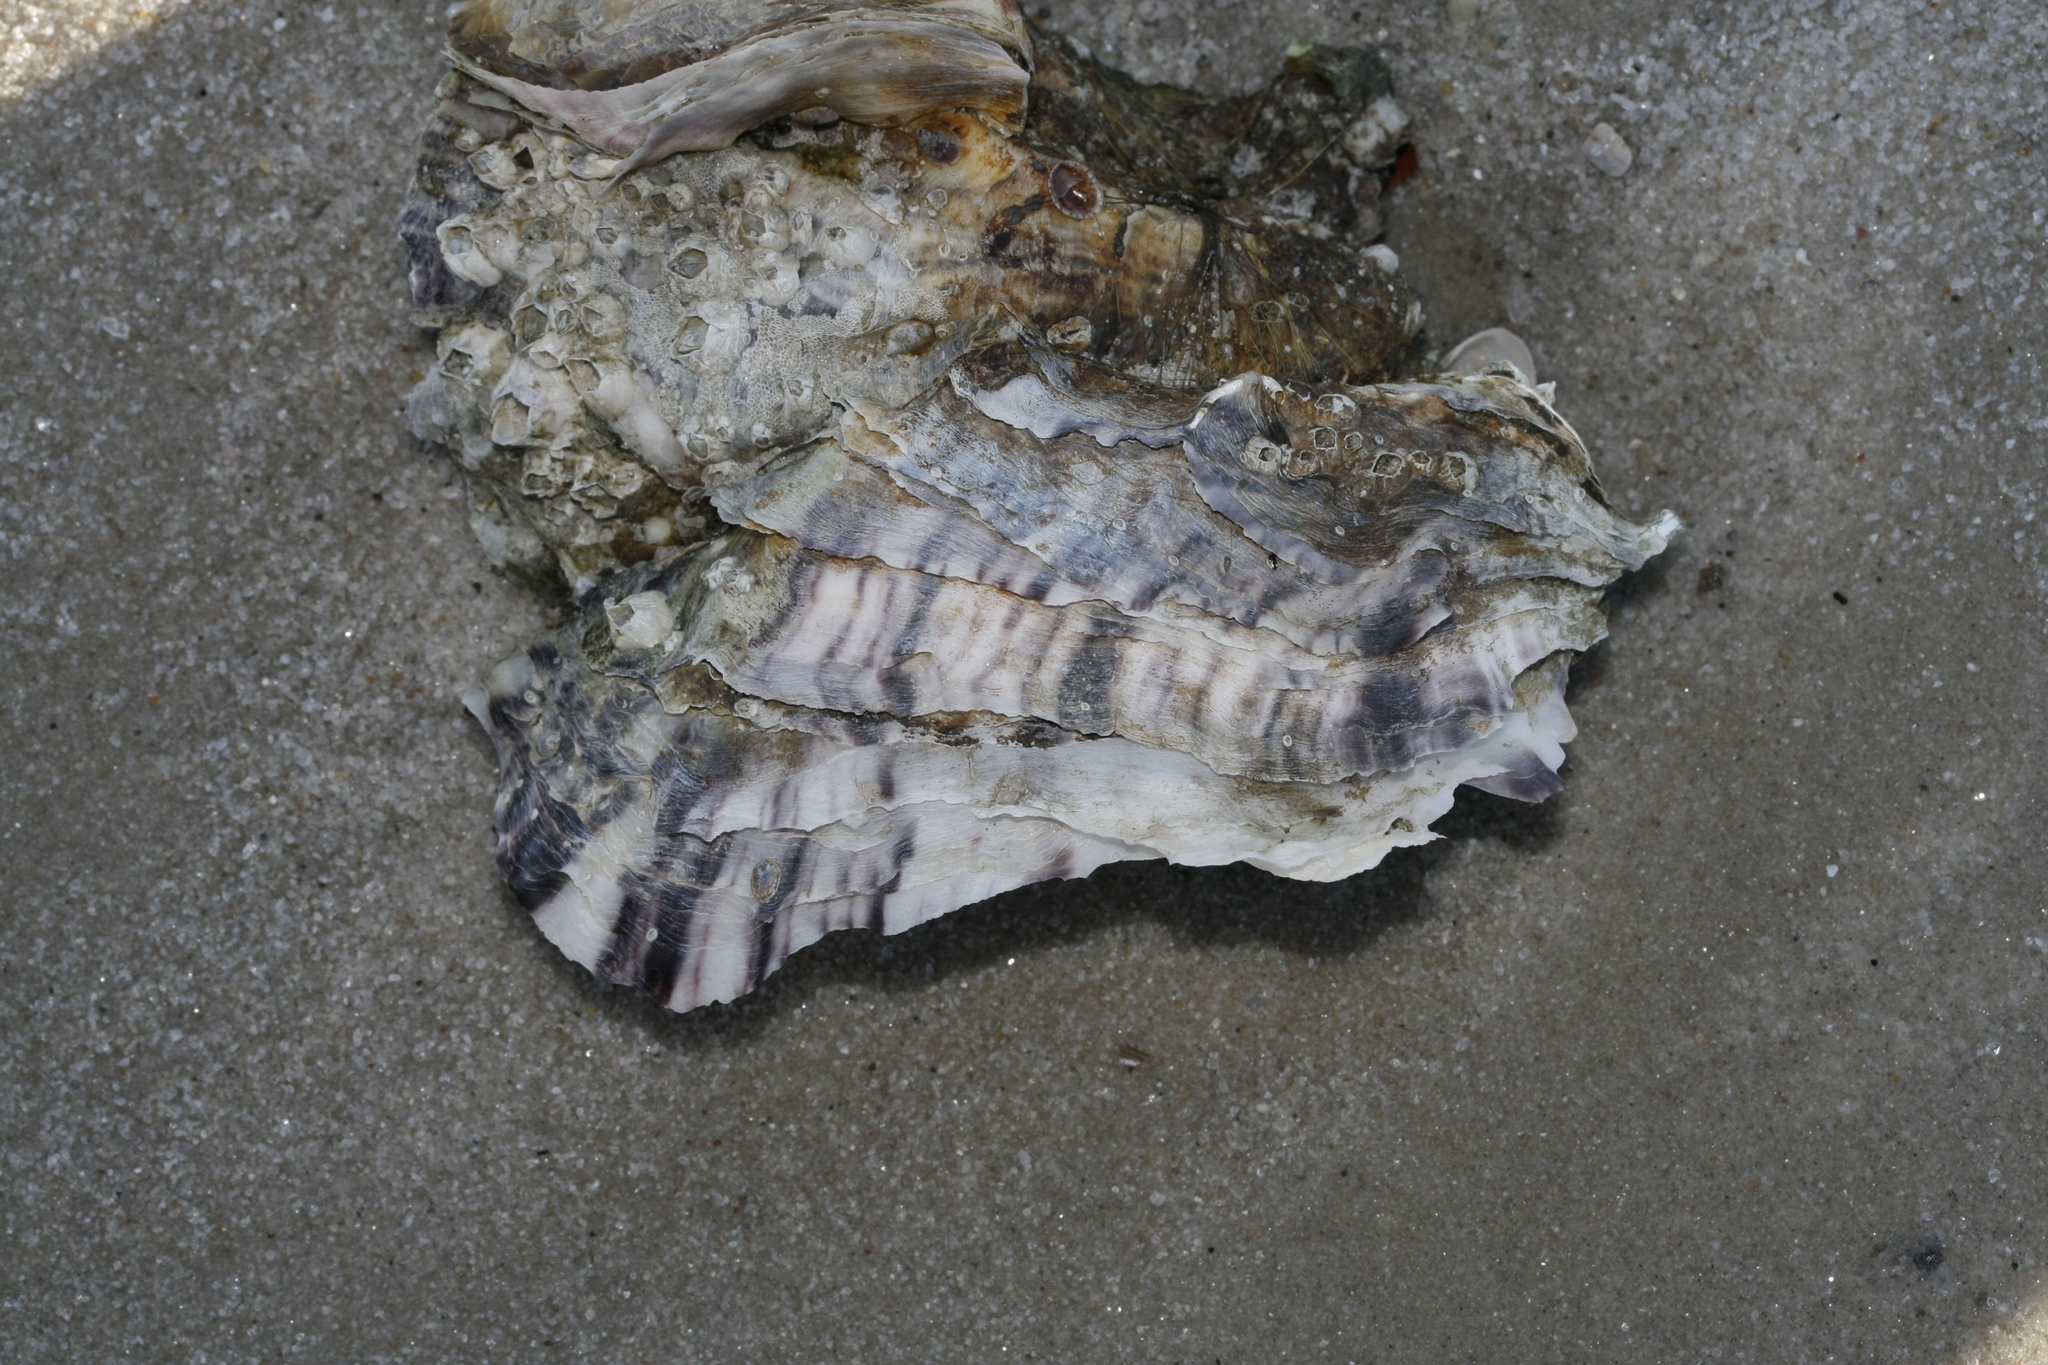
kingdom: Animalia
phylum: Mollusca
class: Bivalvia
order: Ostreida
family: Ostreidae
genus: Magallana
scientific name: Magallana gigas
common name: Pacific oyster
